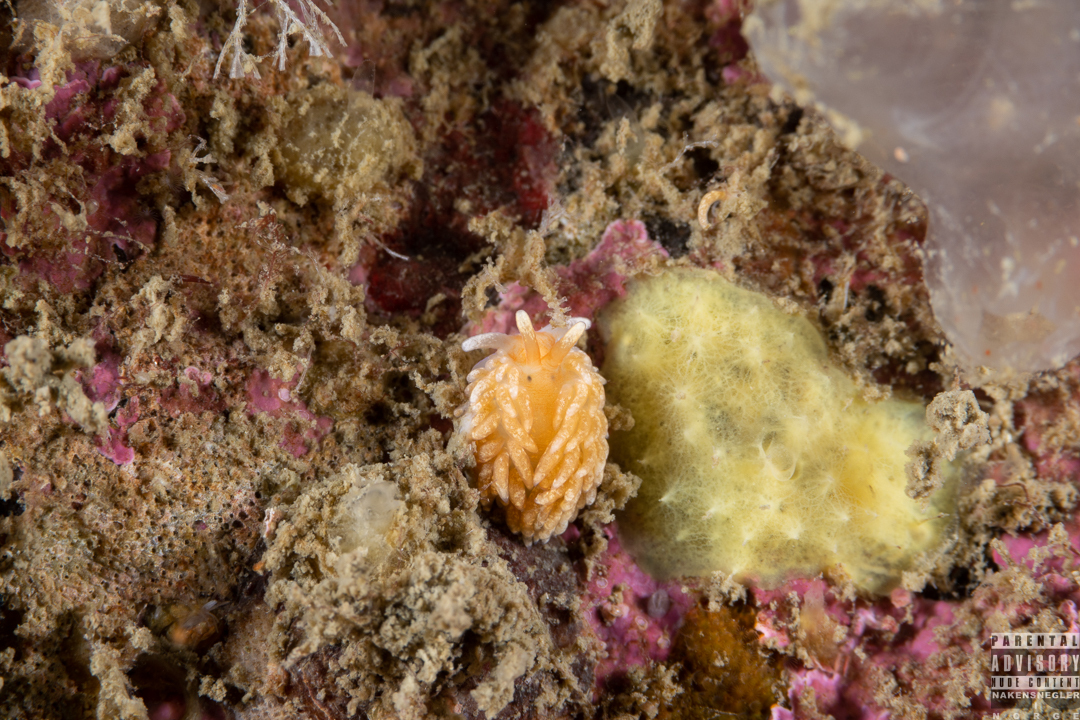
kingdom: Animalia
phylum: Mollusca
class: Gastropoda
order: Nudibranchia
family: Aeolidiidae
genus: Aeolidiella
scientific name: Aeolidiella glauca
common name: Orange-brown aeolid
